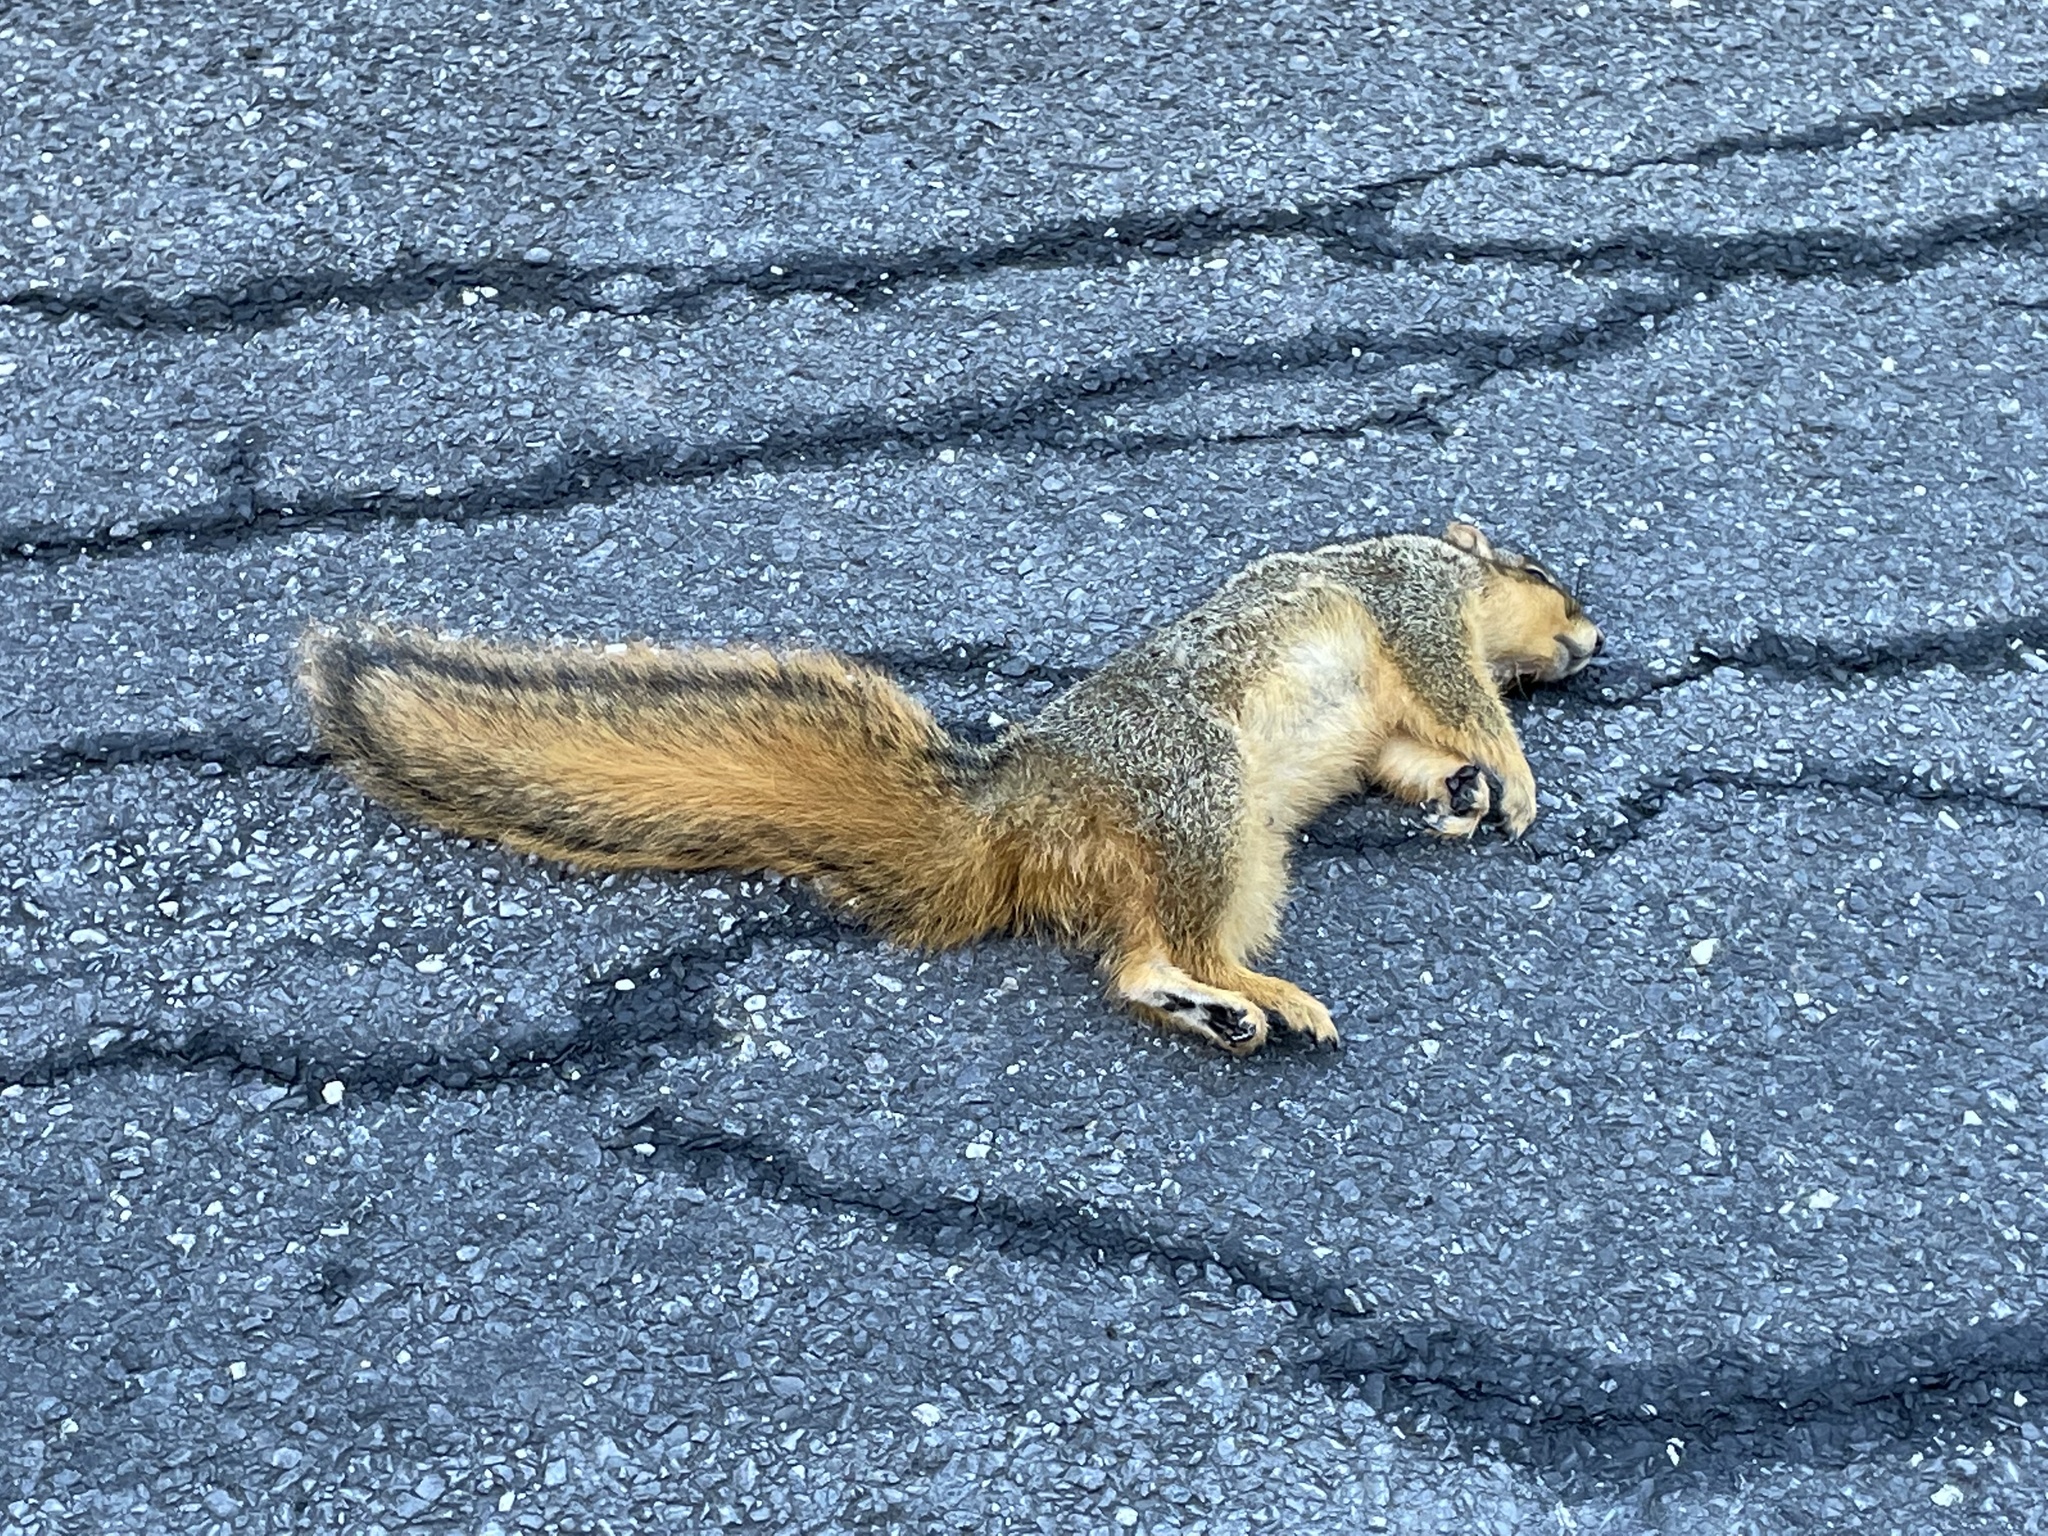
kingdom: Animalia
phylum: Chordata
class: Mammalia
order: Rodentia
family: Sciuridae
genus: Sciurus
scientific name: Sciurus niger
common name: Fox squirrel
